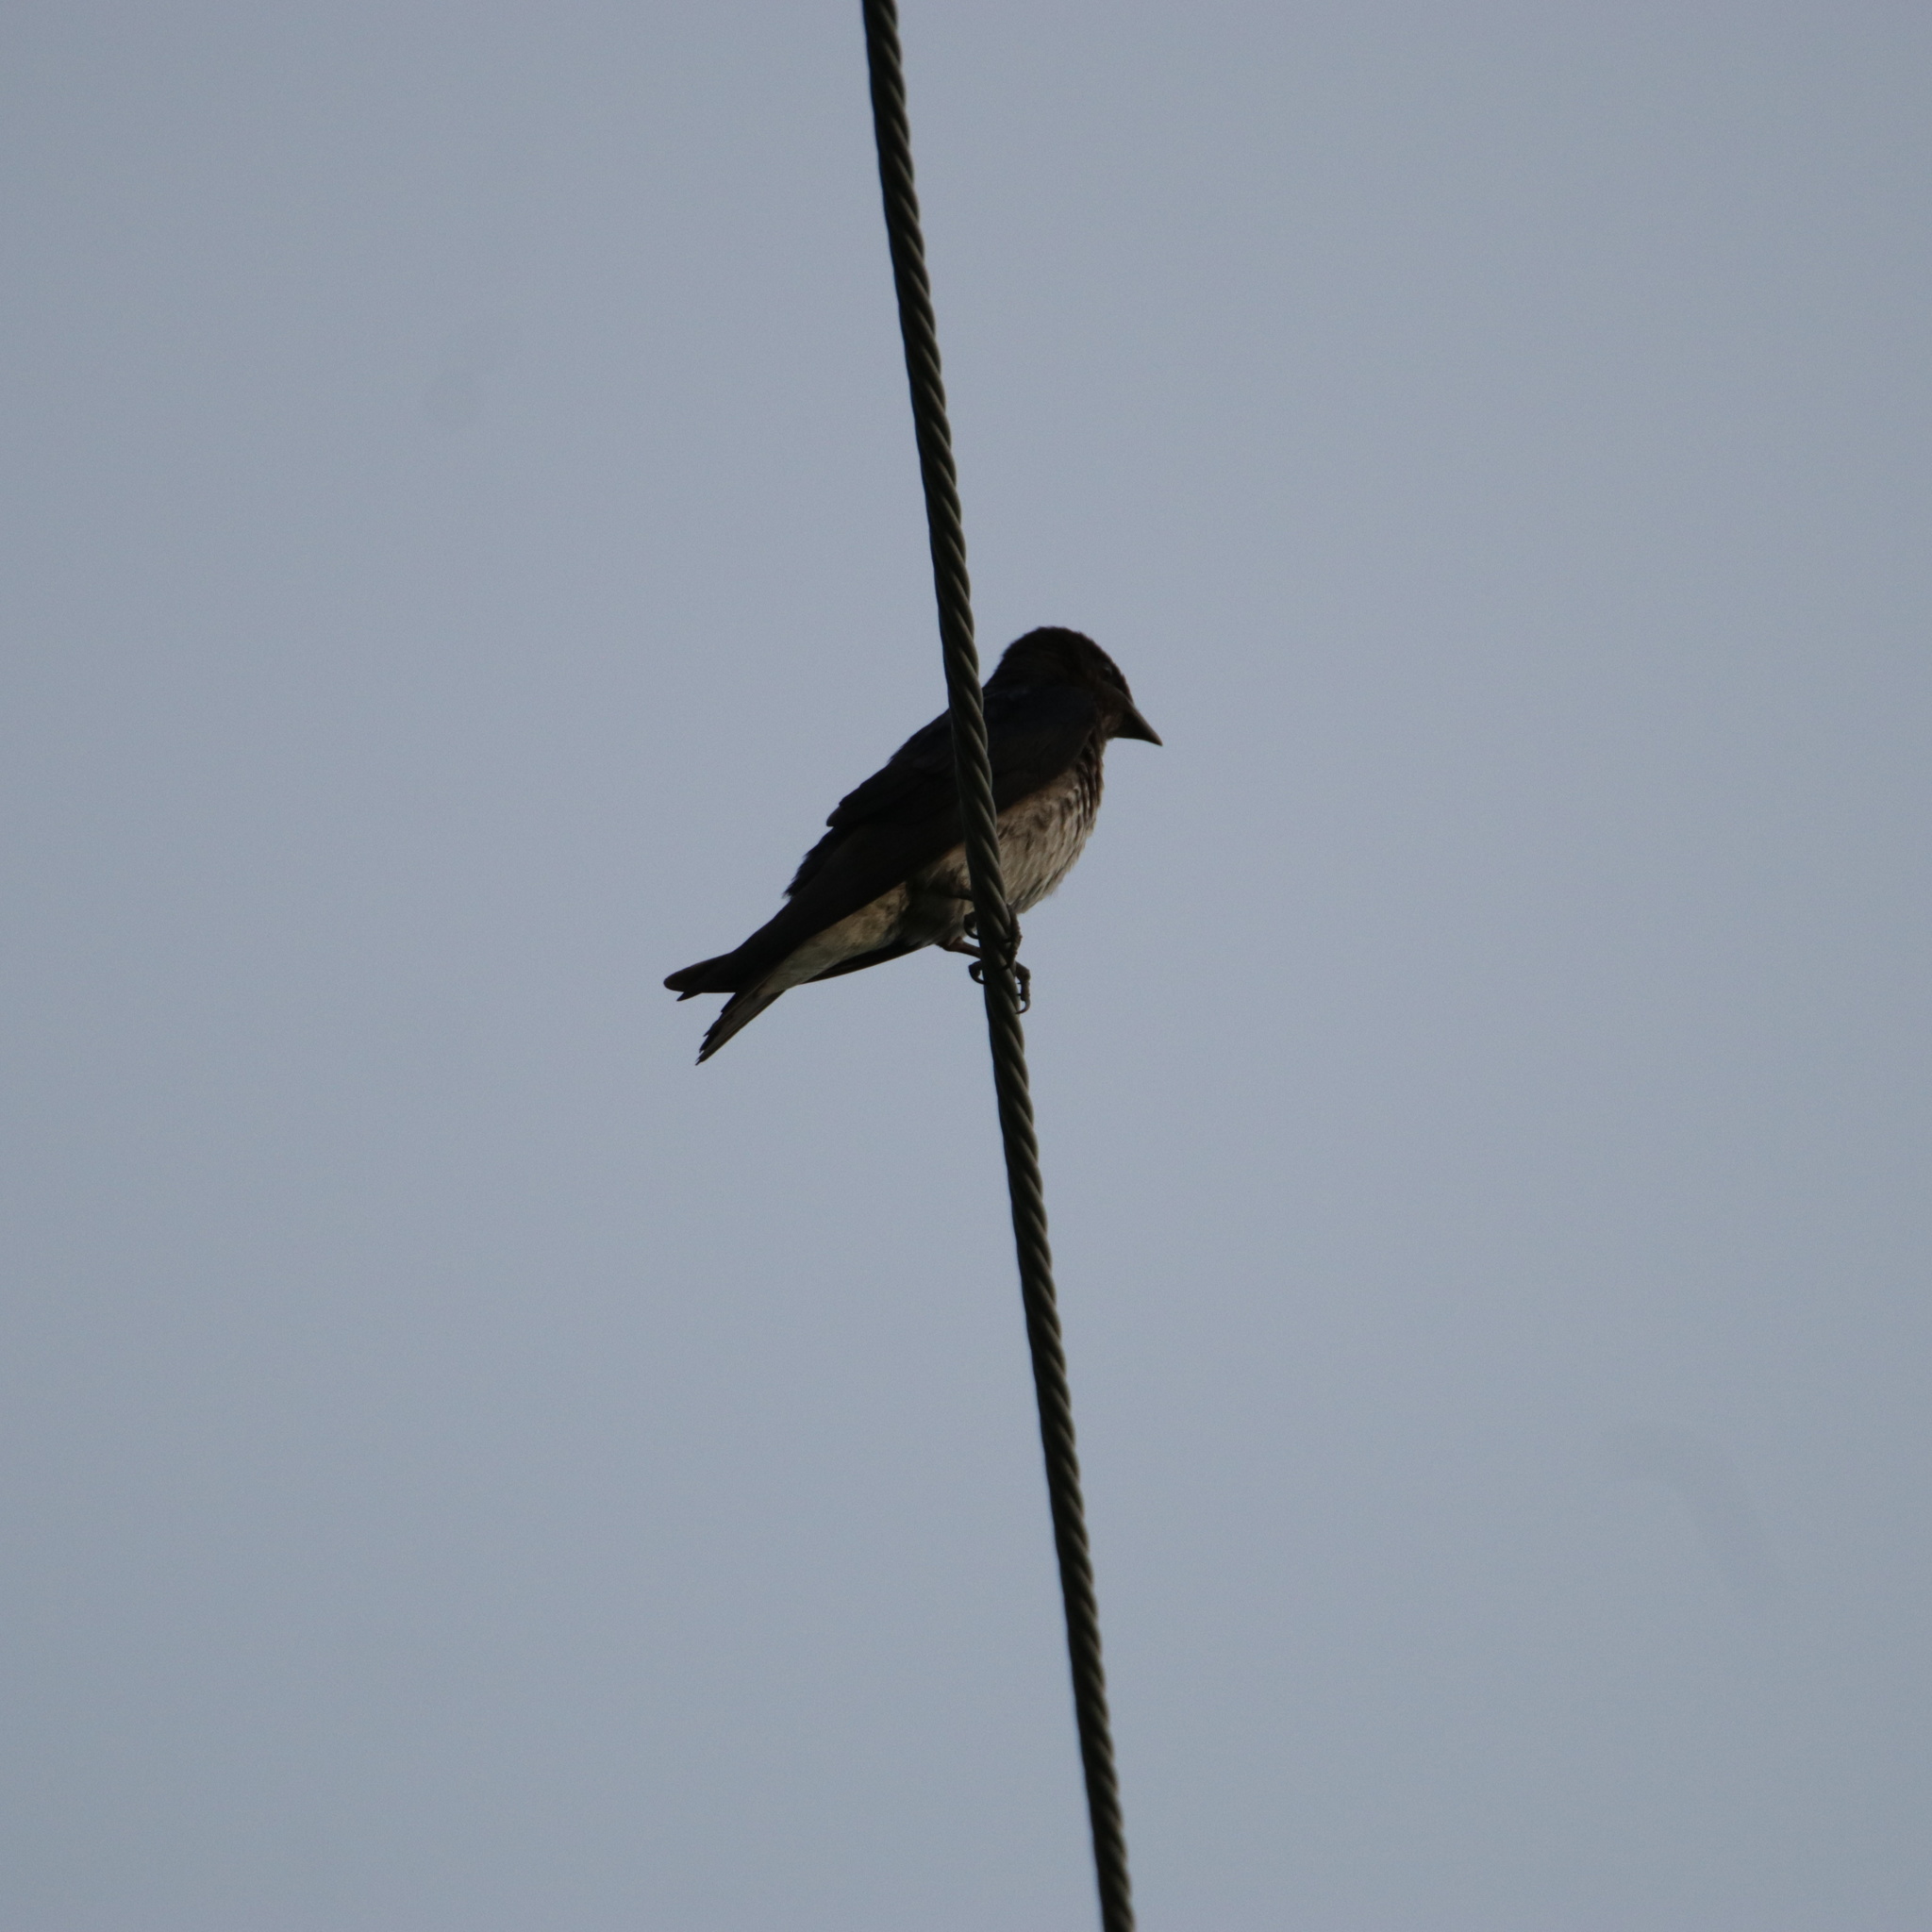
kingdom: Animalia
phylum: Chordata
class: Aves
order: Passeriformes
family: Hirundinidae
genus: Progne
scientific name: Progne chalybea
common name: Grey-breasted martin
